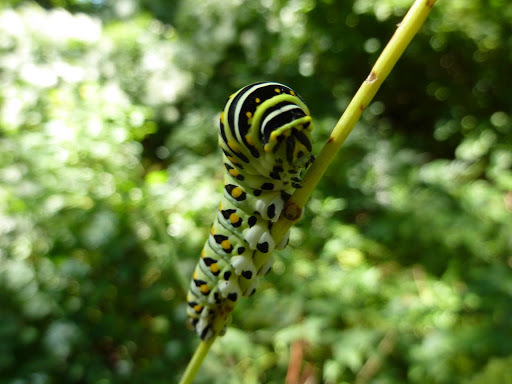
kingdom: Animalia
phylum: Arthropoda
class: Insecta
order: Lepidoptera
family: Papilionidae
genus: Papilio
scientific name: Papilio polyxenes
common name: Black swallowtail
